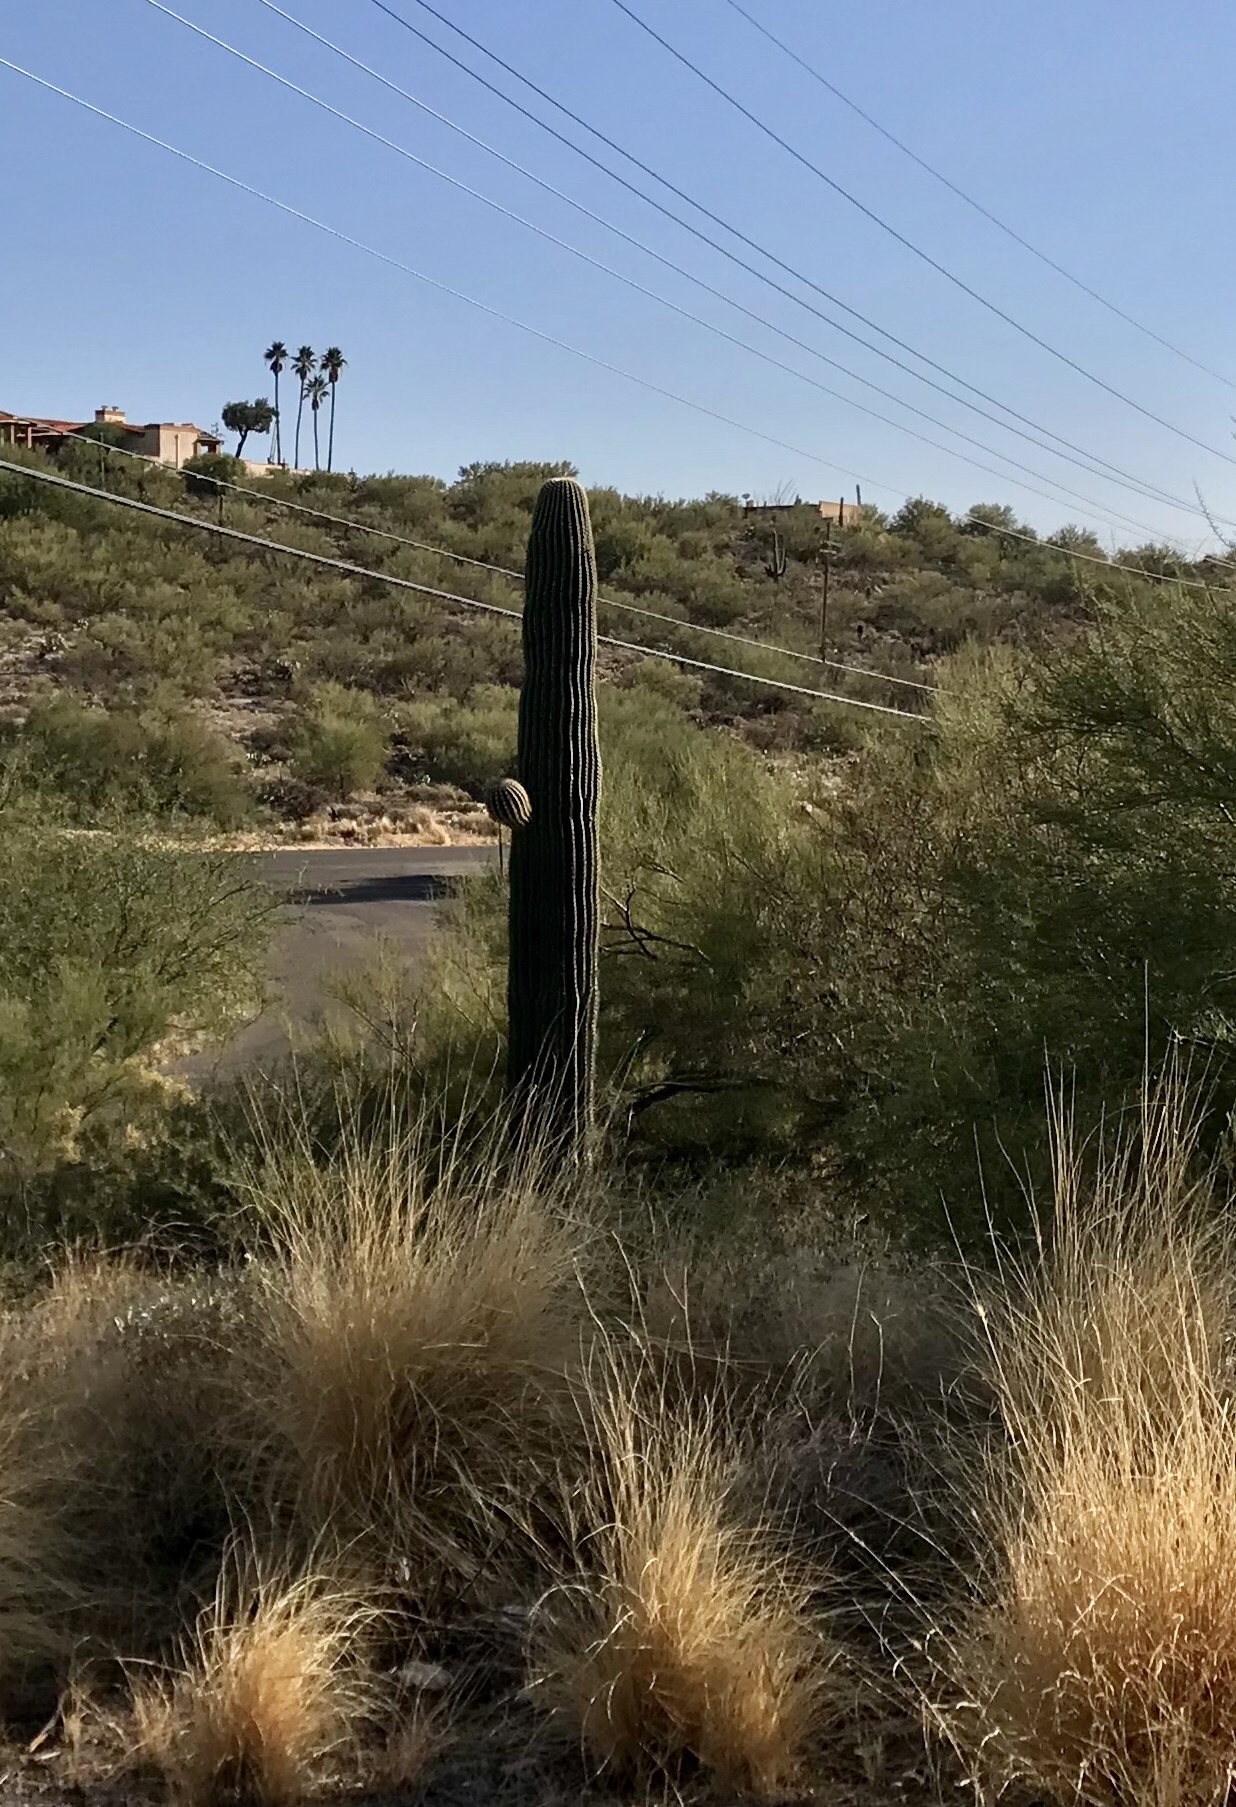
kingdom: Plantae
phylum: Tracheophyta
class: Magnoliopsida
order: Caryophyllales
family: Cactaceae
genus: Carnegiea
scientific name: Carnegiea gigantea
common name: Saguaro
